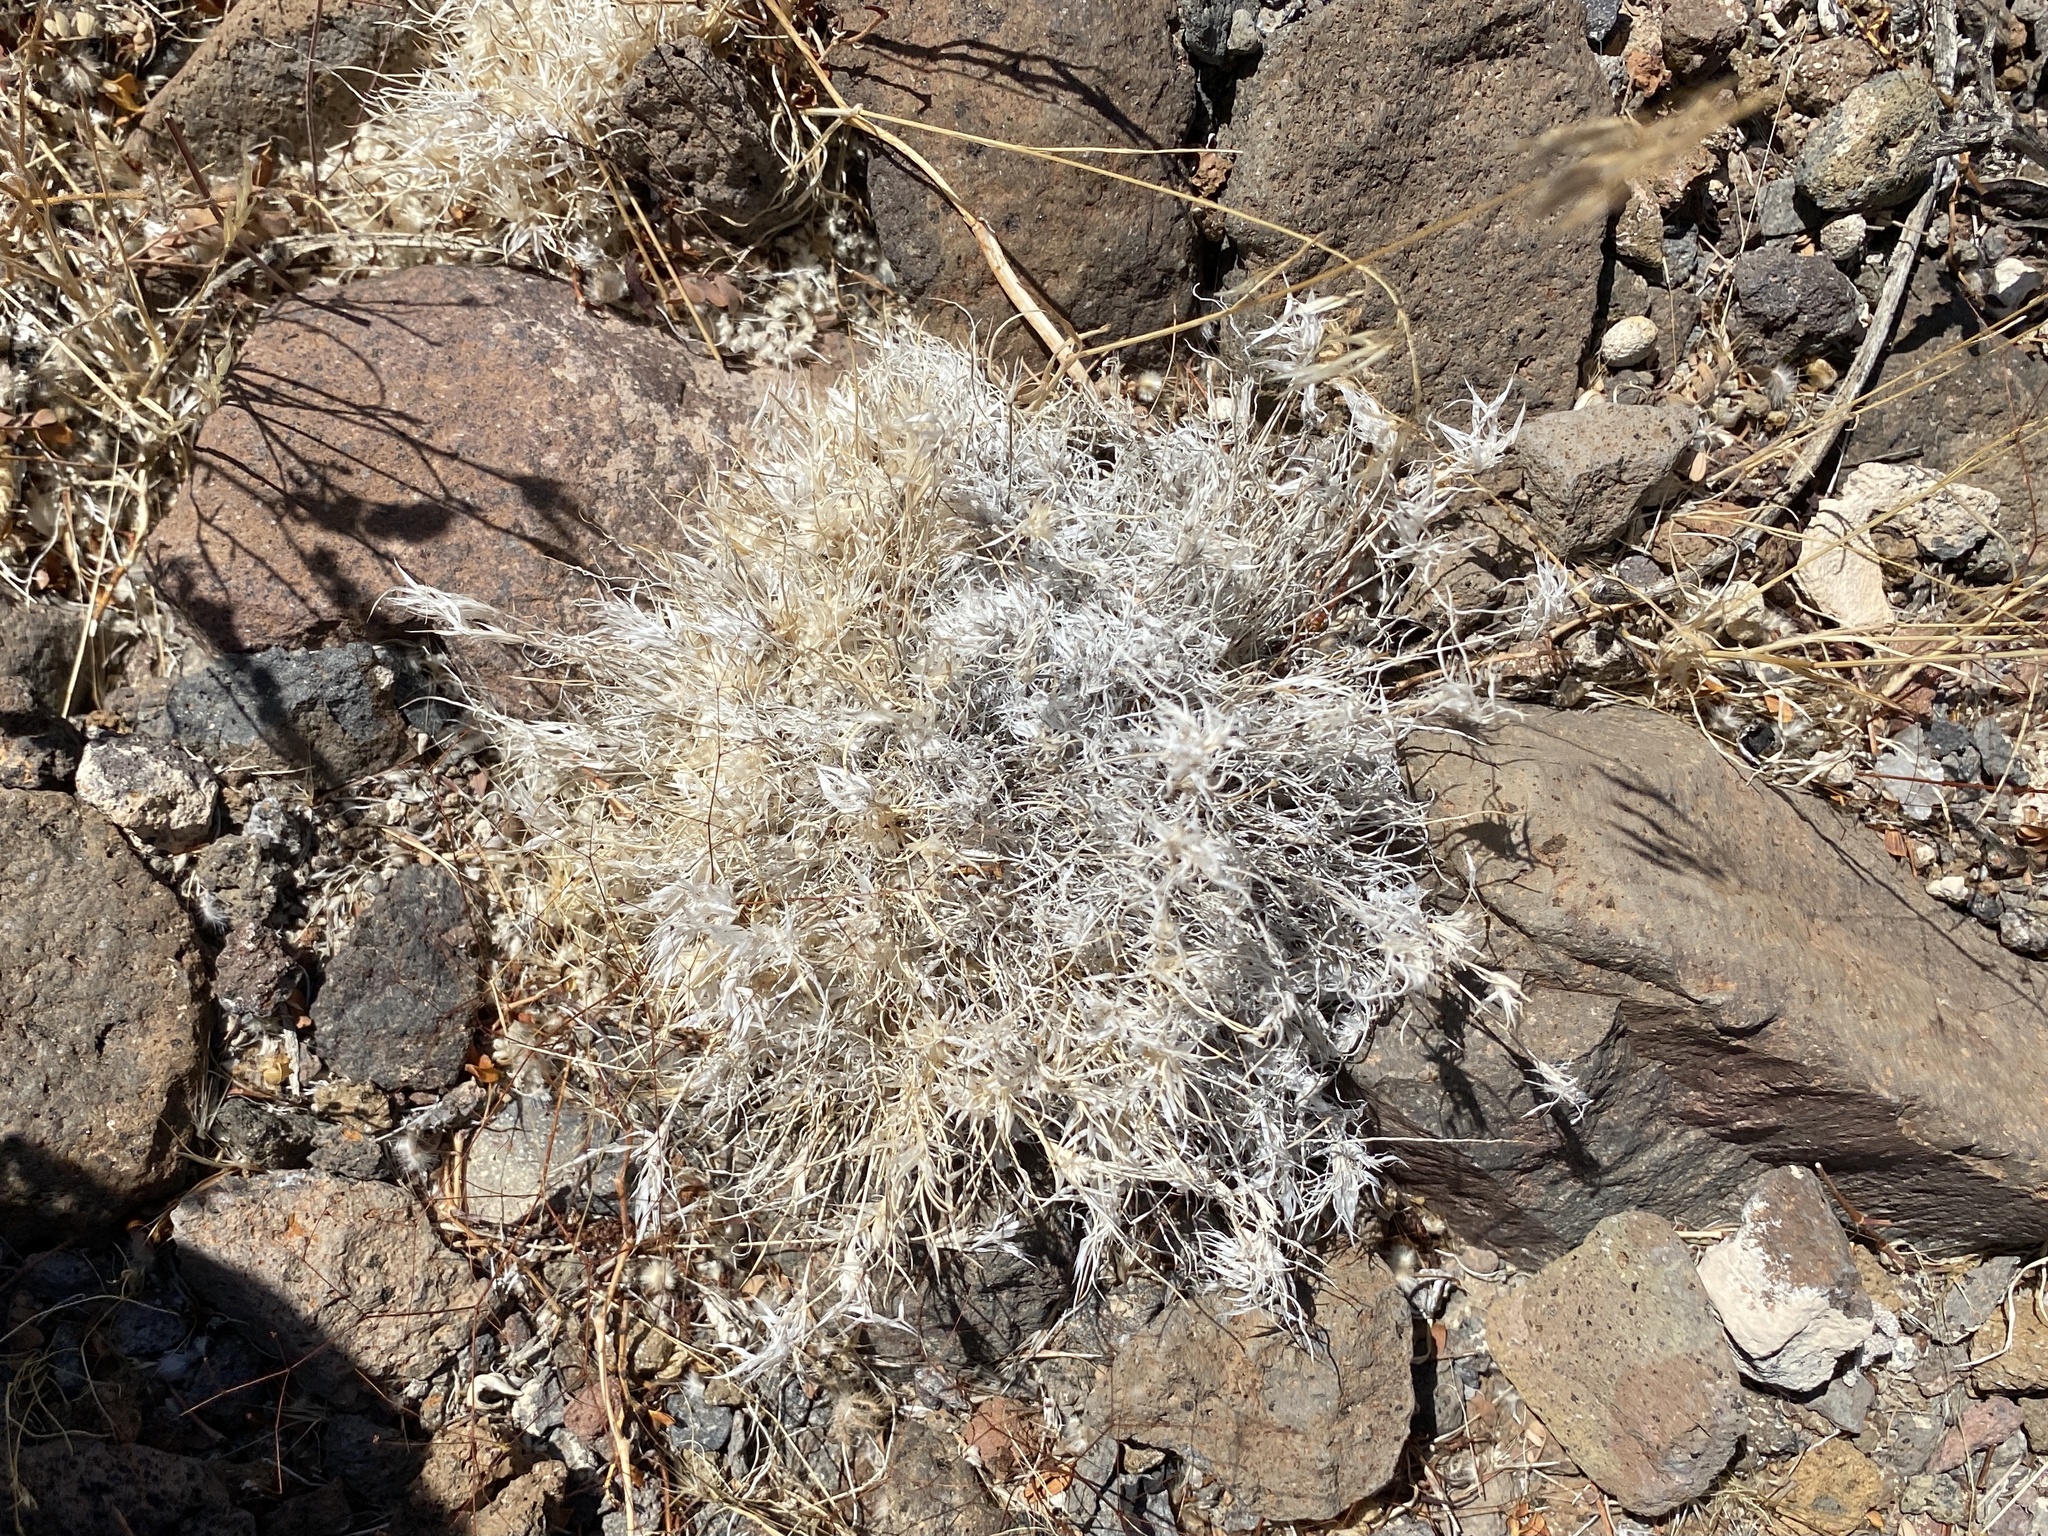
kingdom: Plantae
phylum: Tracheophyta
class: Liliopsida
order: Poales
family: Poaceae
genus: Dasyochloa
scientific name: Dasyochloa pulchella
